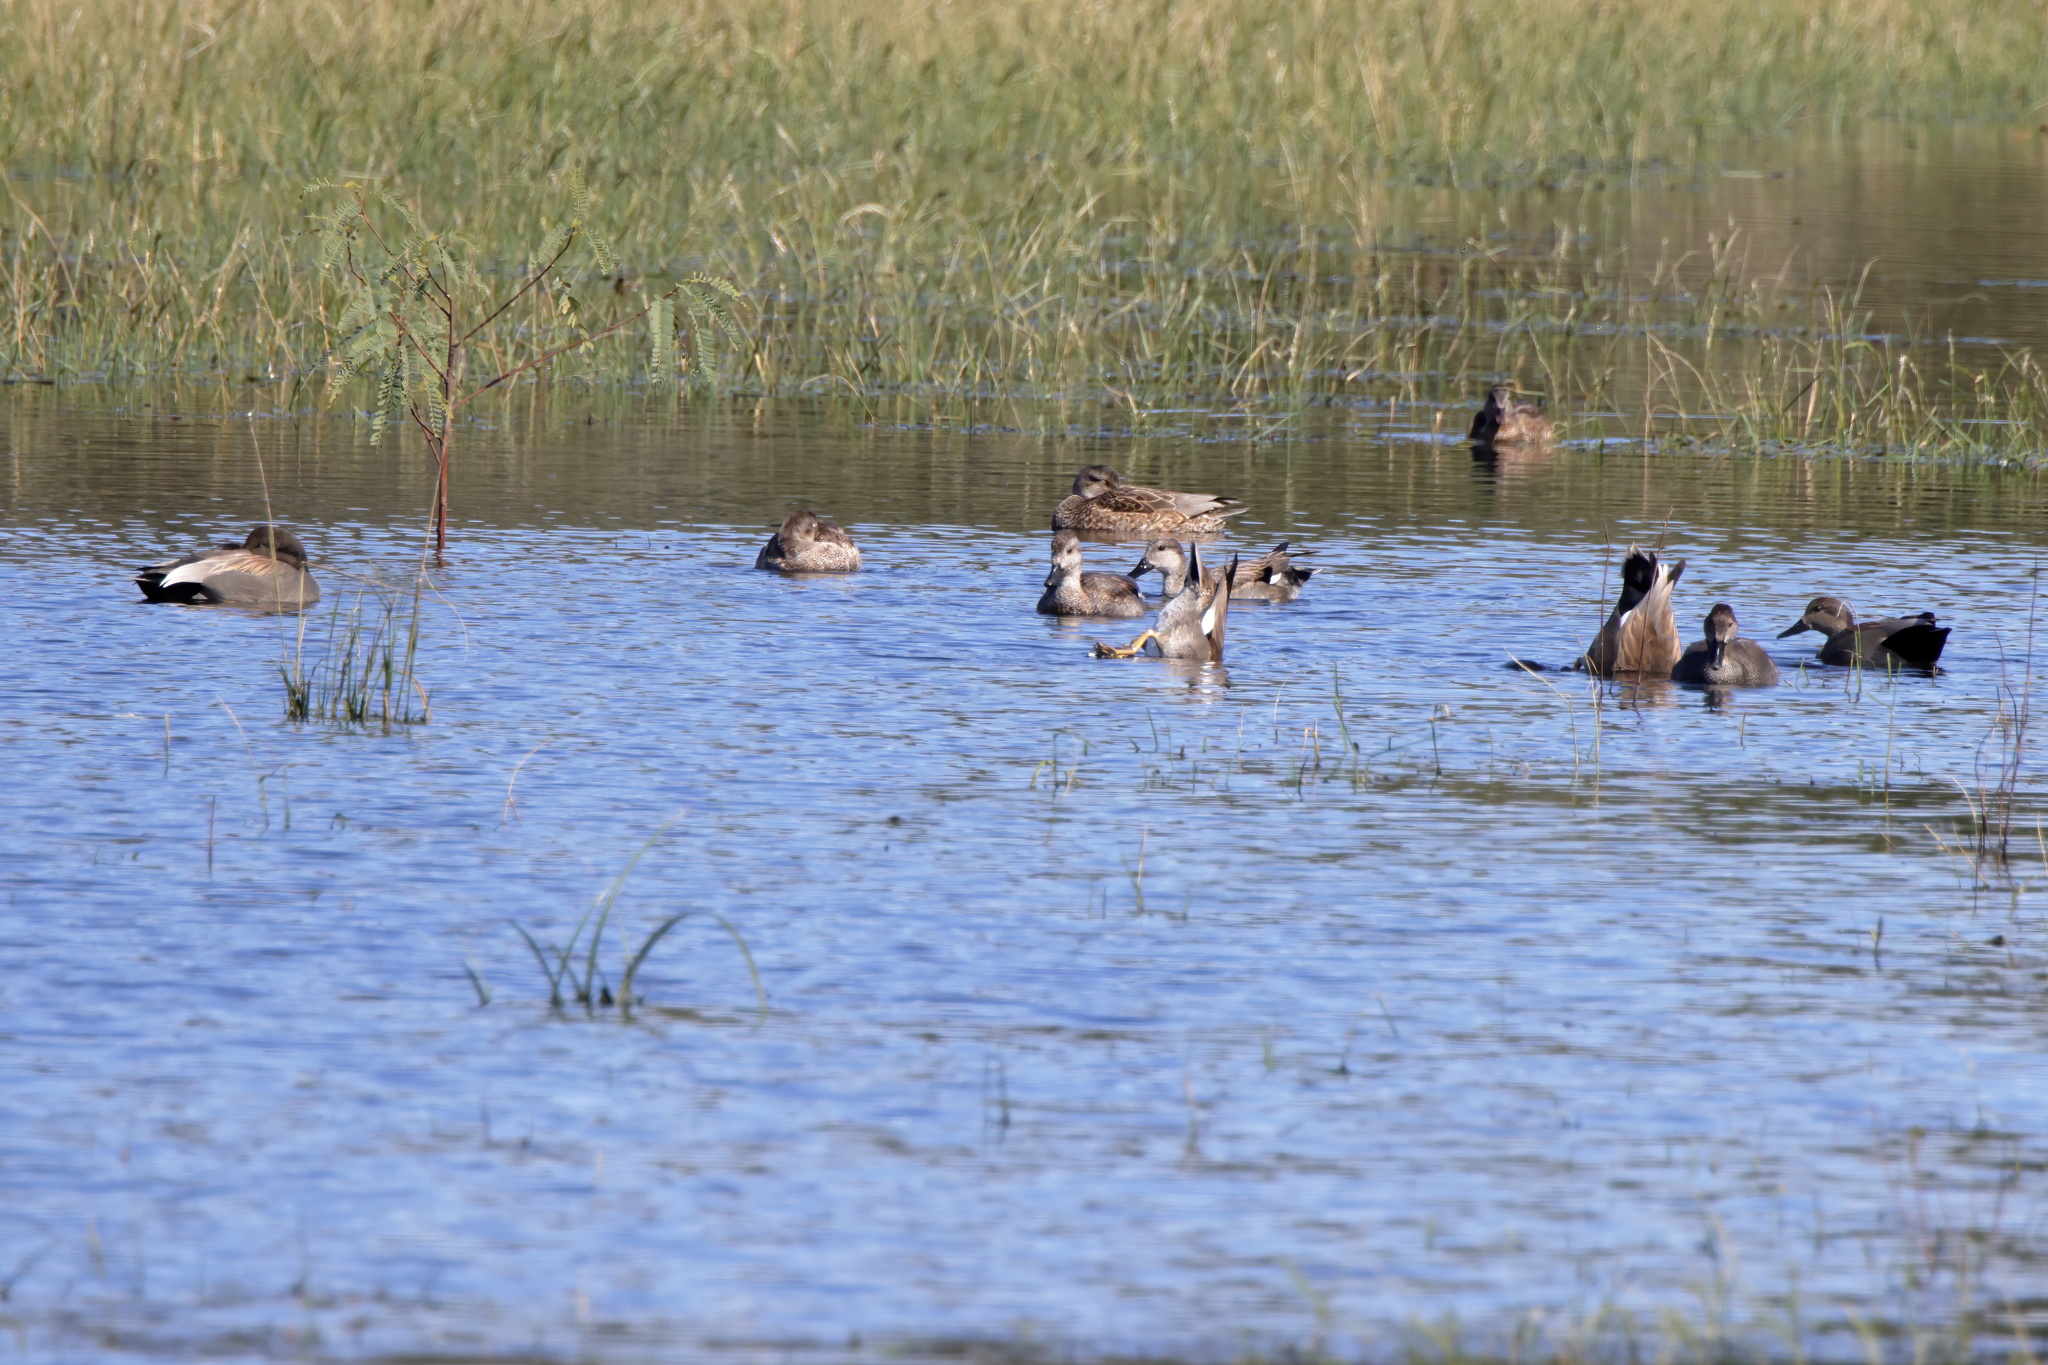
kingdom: Animalia
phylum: Chordata
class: Aves
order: Anseriformes
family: Anatidae
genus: Mareca
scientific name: Mareca strepera
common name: Gadwall
